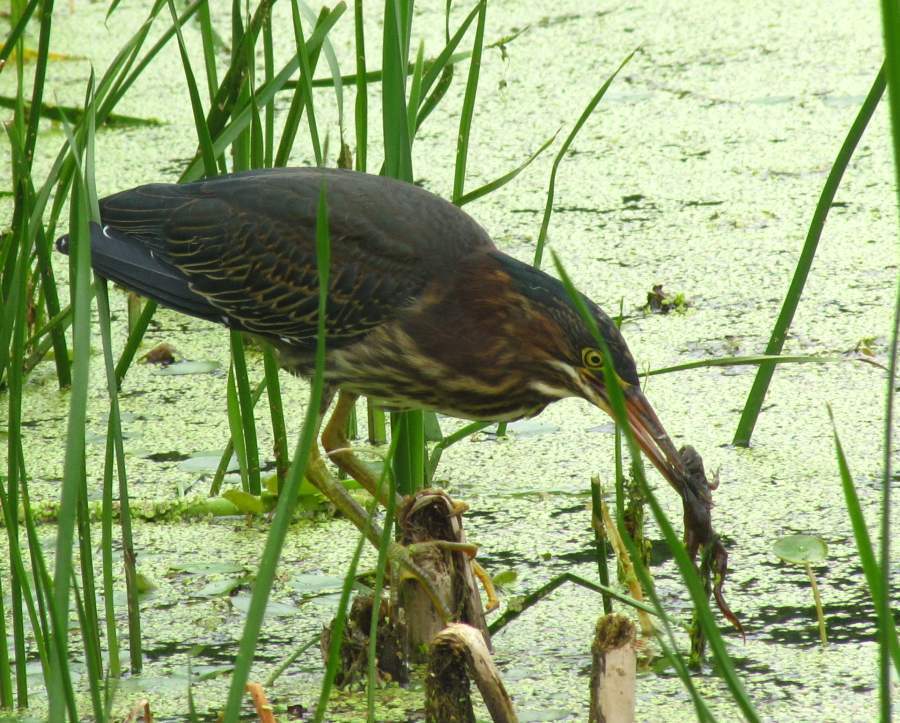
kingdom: Animalia
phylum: Chordata
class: Aves
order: Pelecaniformes
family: Ardeidae
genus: Butorides
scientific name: Butorides virescens
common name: Green heron
